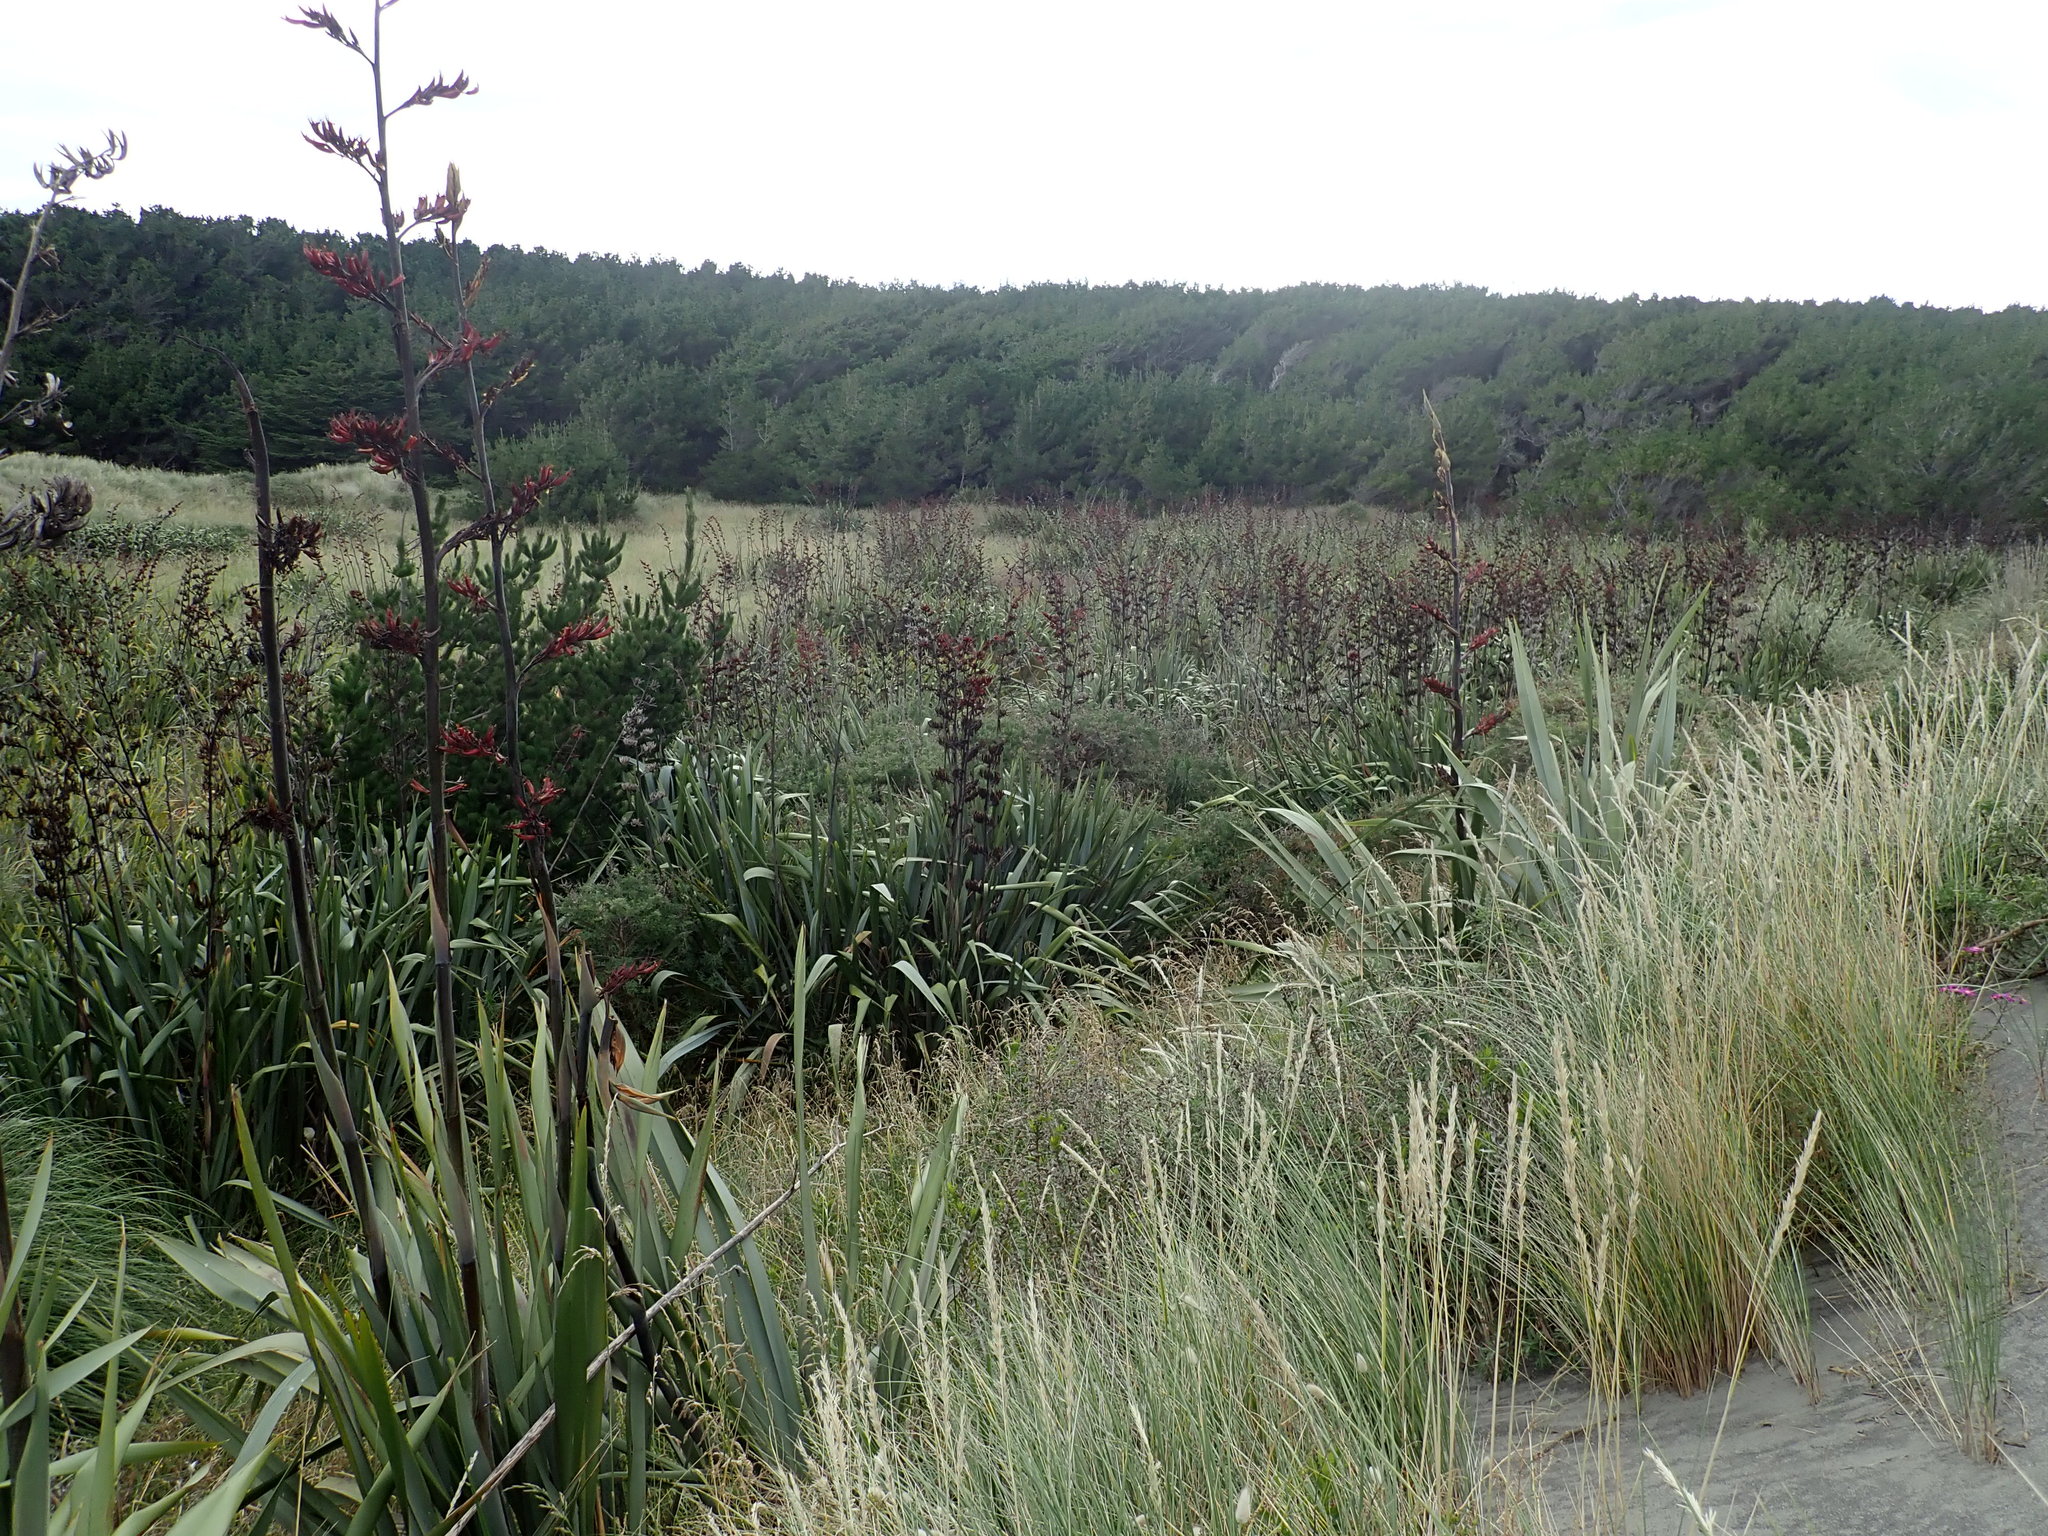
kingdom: Plantae
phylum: Tracheophyta
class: Liliopsida
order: Asparagales
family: Asphodelaceae
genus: Phormium
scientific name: Phormium tenax
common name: New zealand flax
